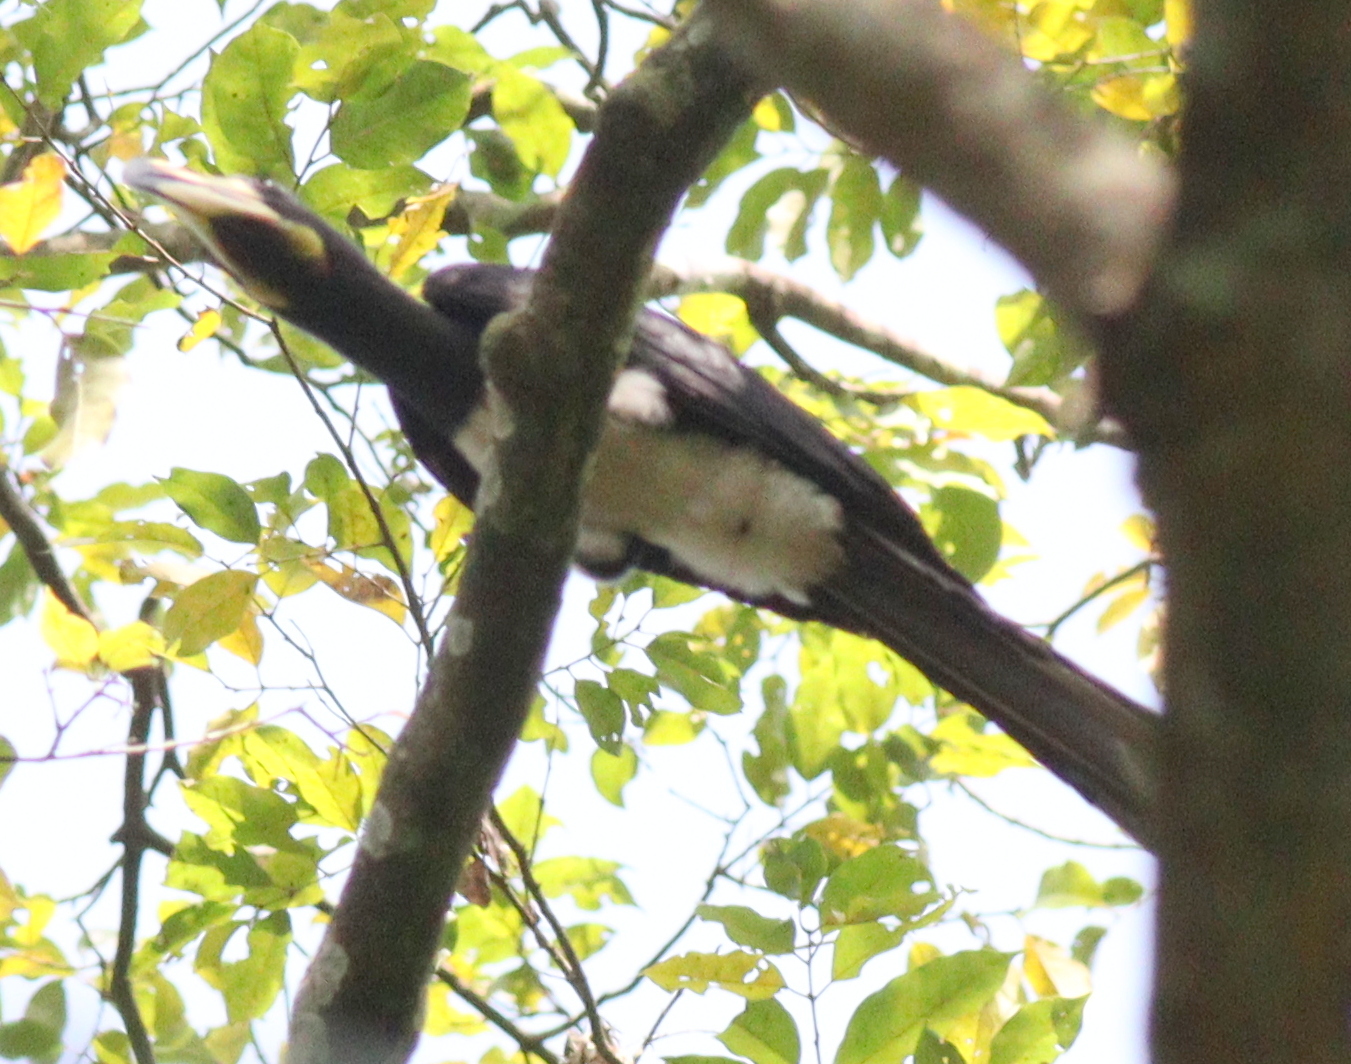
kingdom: Animalia
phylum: Chordata
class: Aves
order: Bucerotiformes
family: Bucerotidae
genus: Lophoceros
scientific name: Lophoceros fasciatus
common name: African pied hornbill
